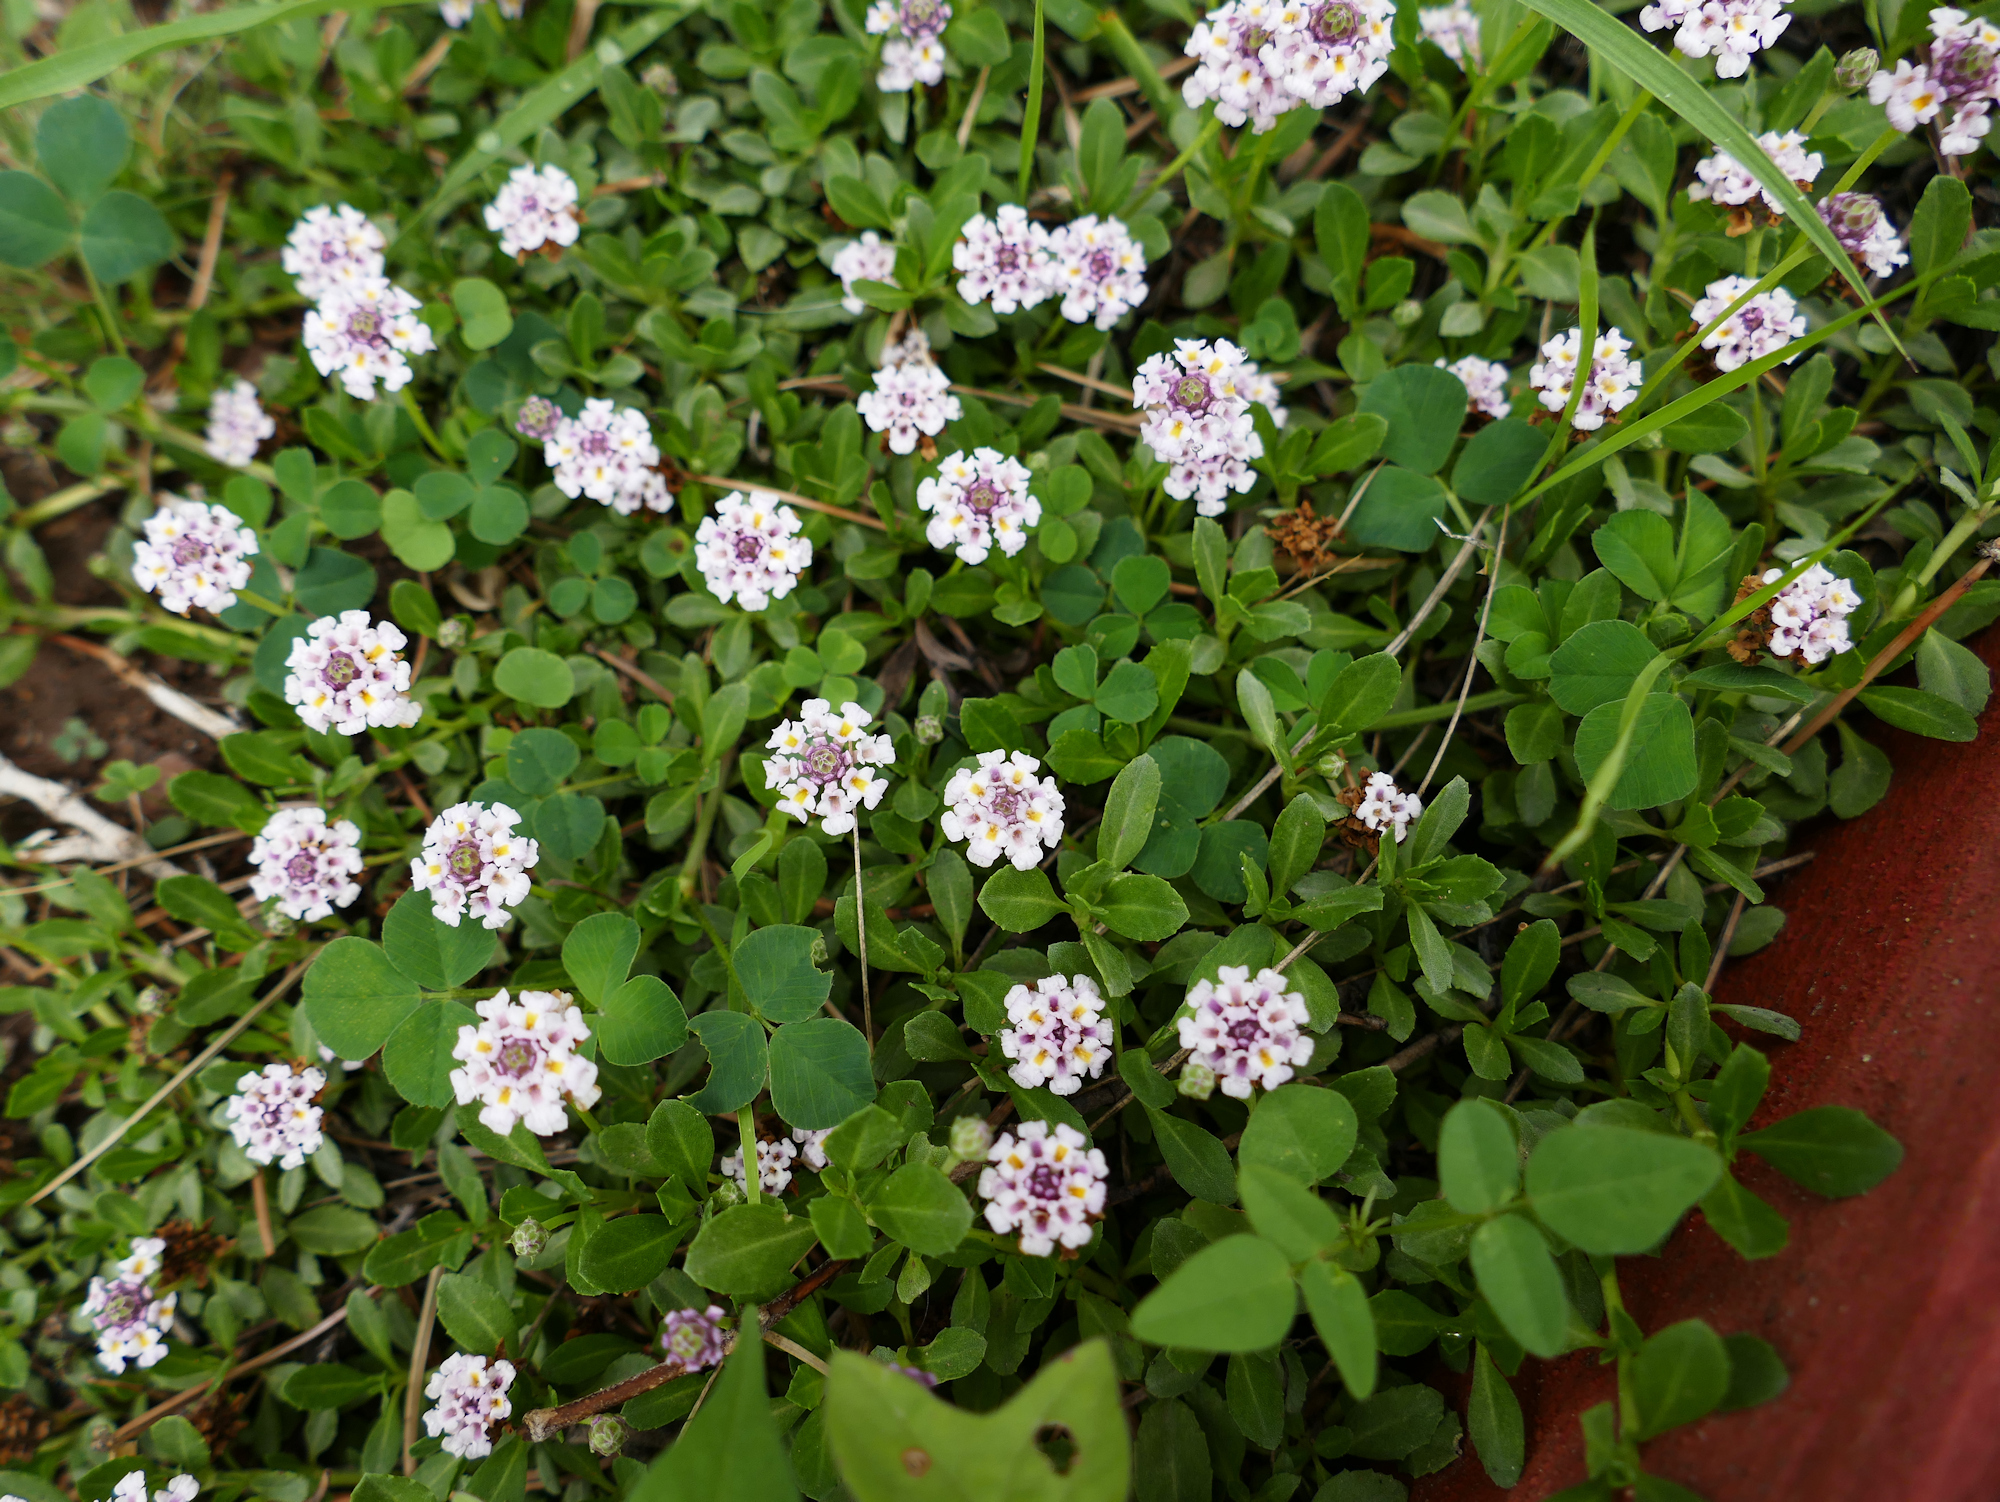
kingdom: Plantae
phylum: Tracheophyta
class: Magnoliopsida
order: Lamiales
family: Verbenaceae
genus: Phyla
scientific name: Phyla nodiflora
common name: Frogfruit
